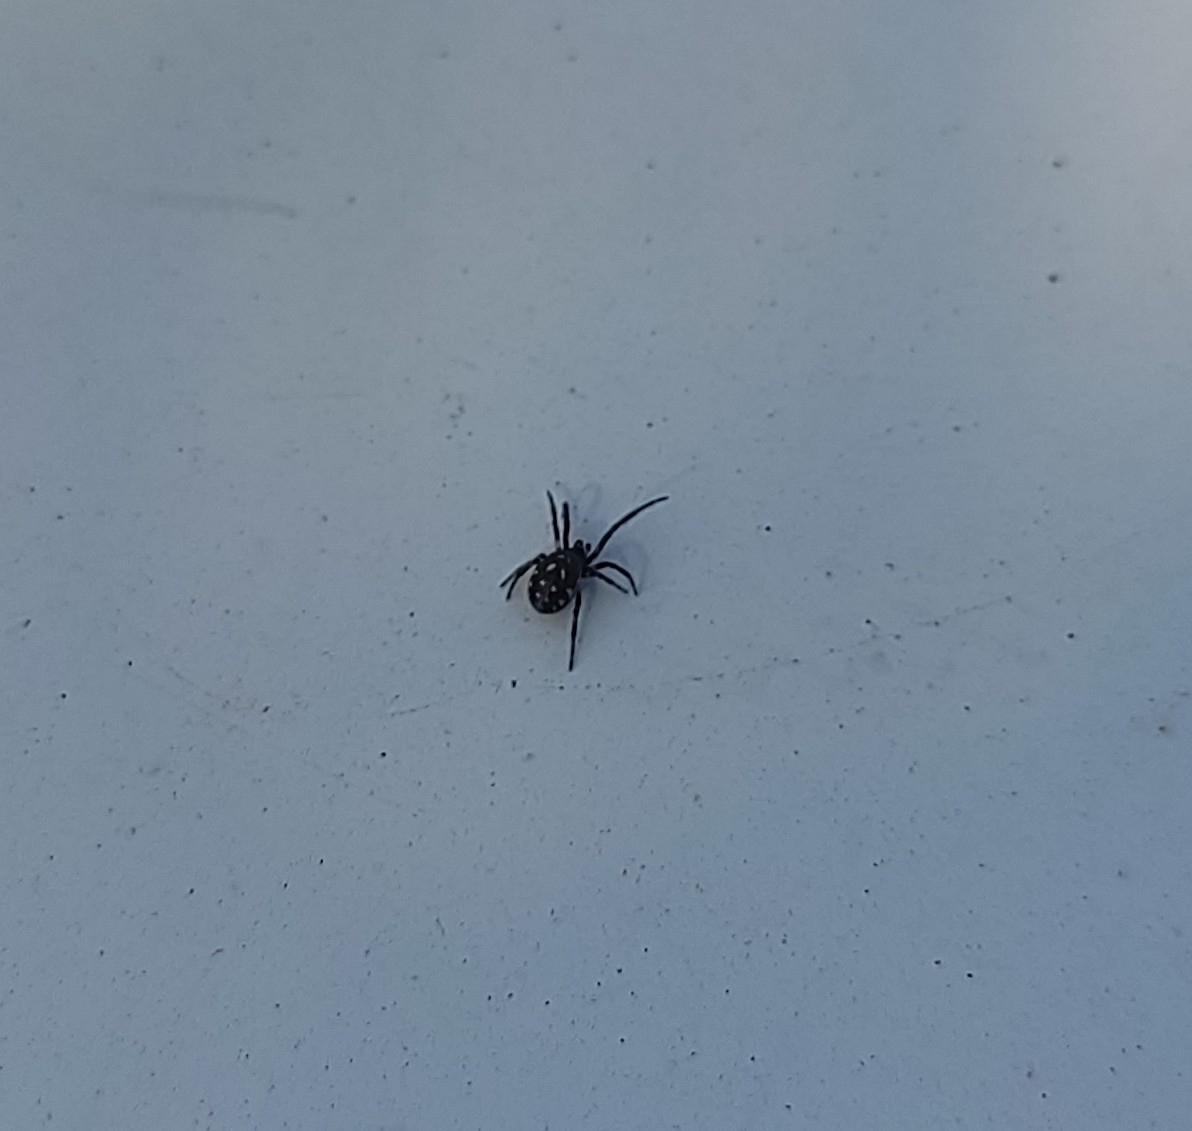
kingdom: Animalia
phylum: Arthropoda
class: Arachnida
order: Araneae
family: Theridiidae
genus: Steatoda
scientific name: Steatoda albomaculata
